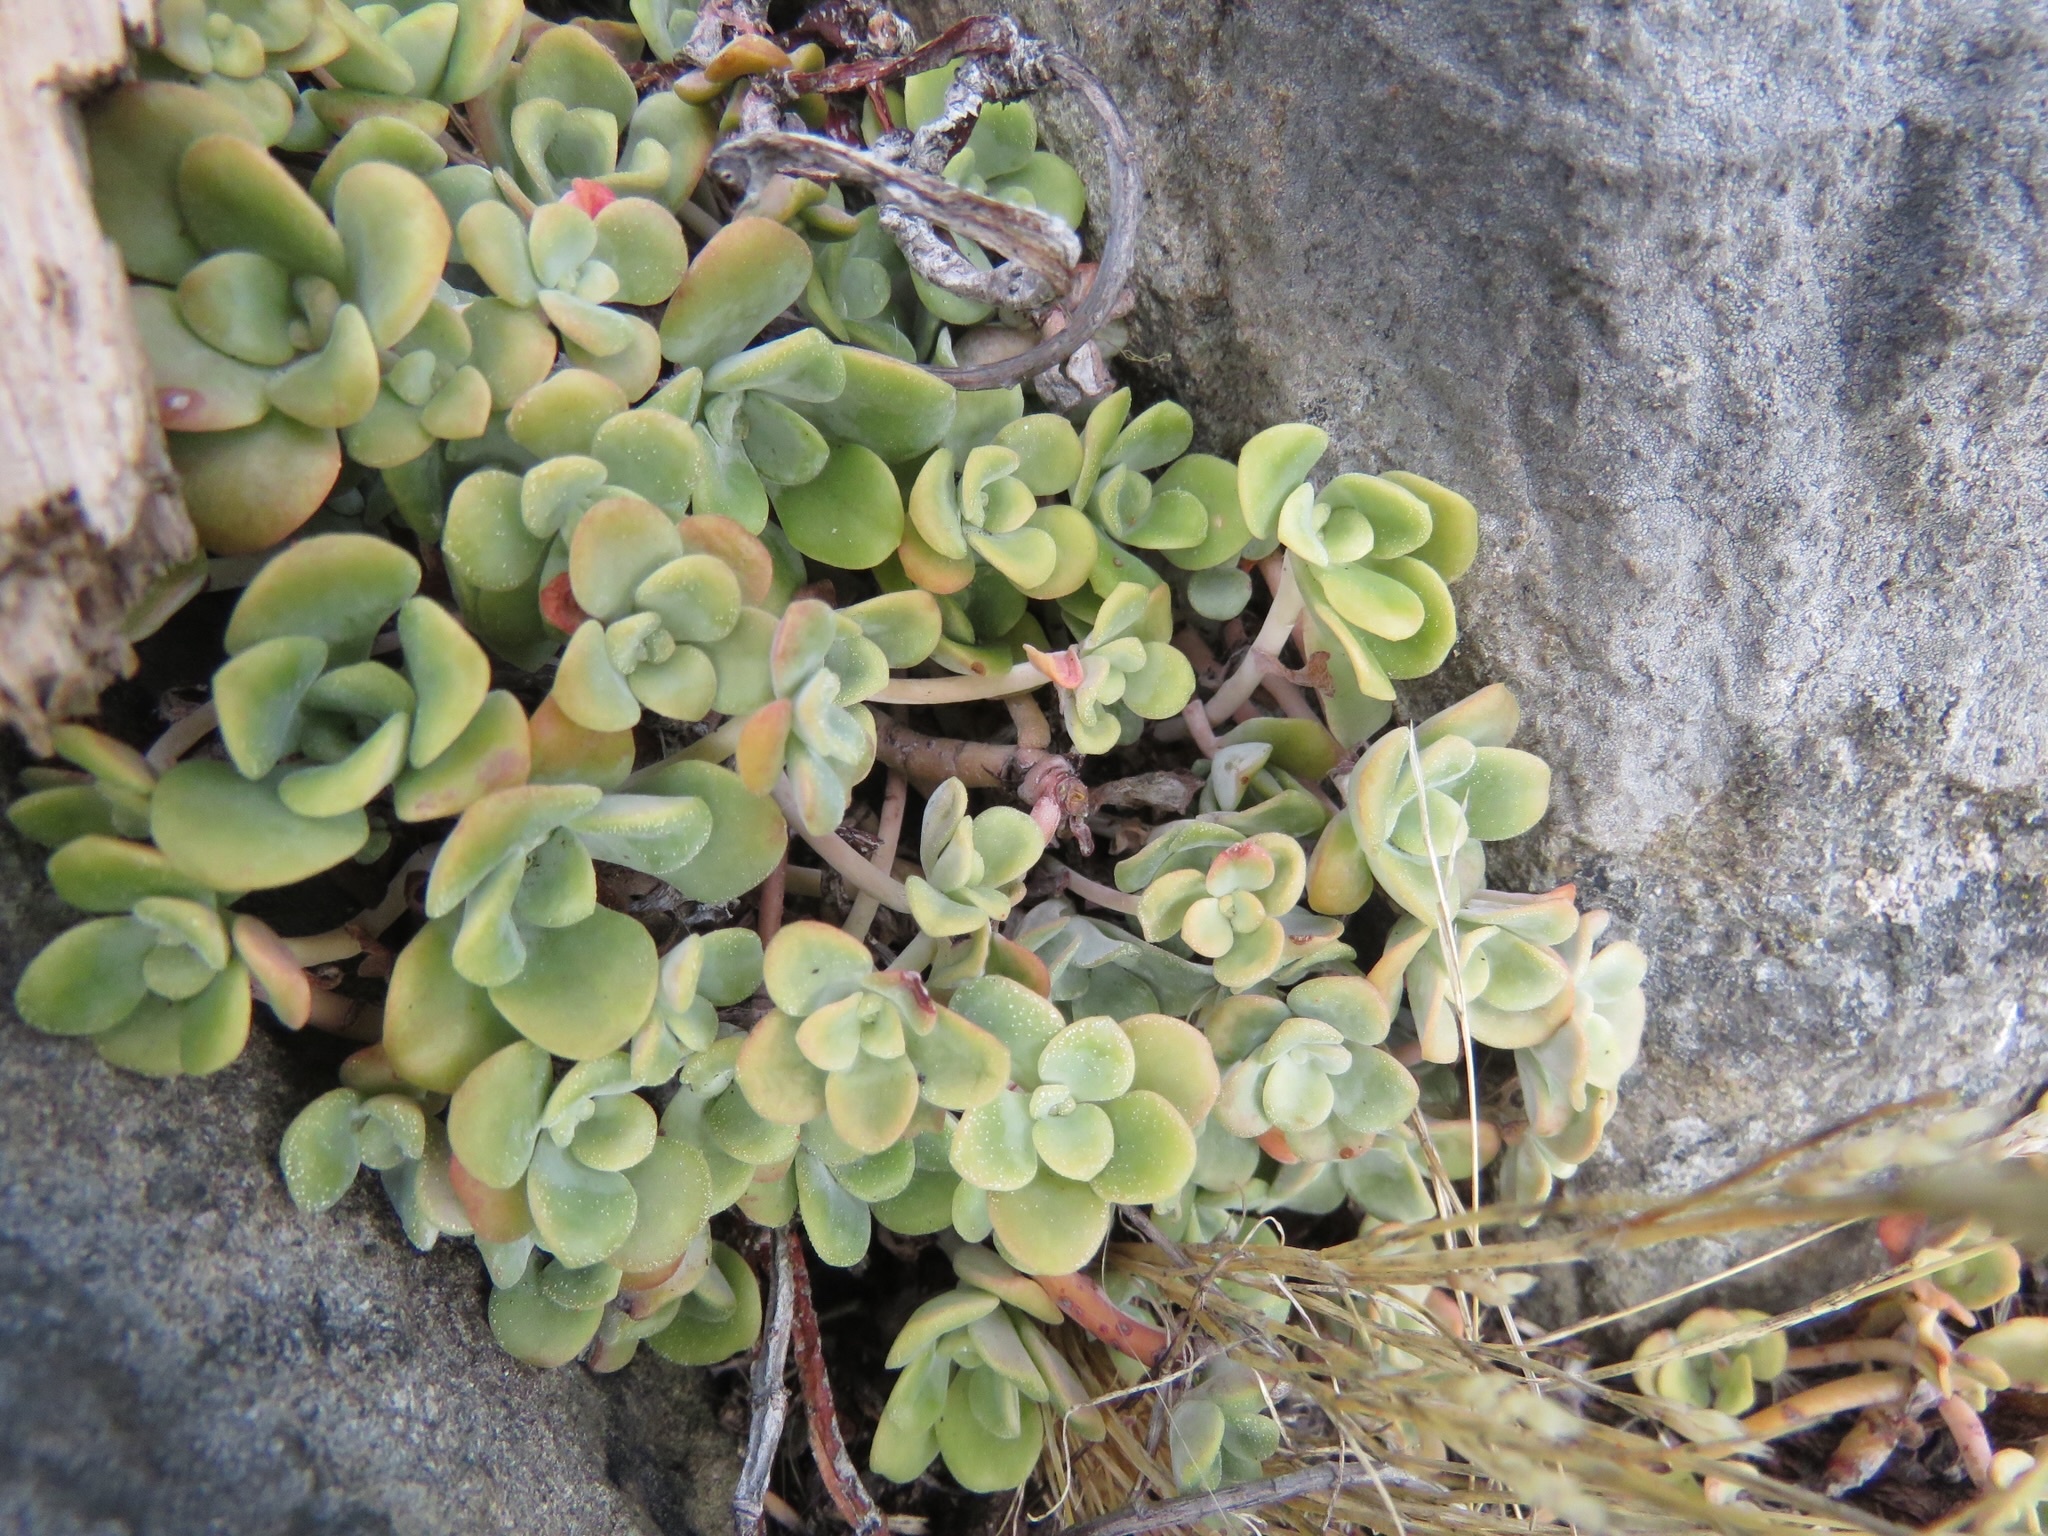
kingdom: Plantae
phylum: Tracheophyta
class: Magnoliopsida
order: Saxifragales
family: Crassulaceae
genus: Sedum
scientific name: Sedum spathulifolium
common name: Colorado stonecrop
